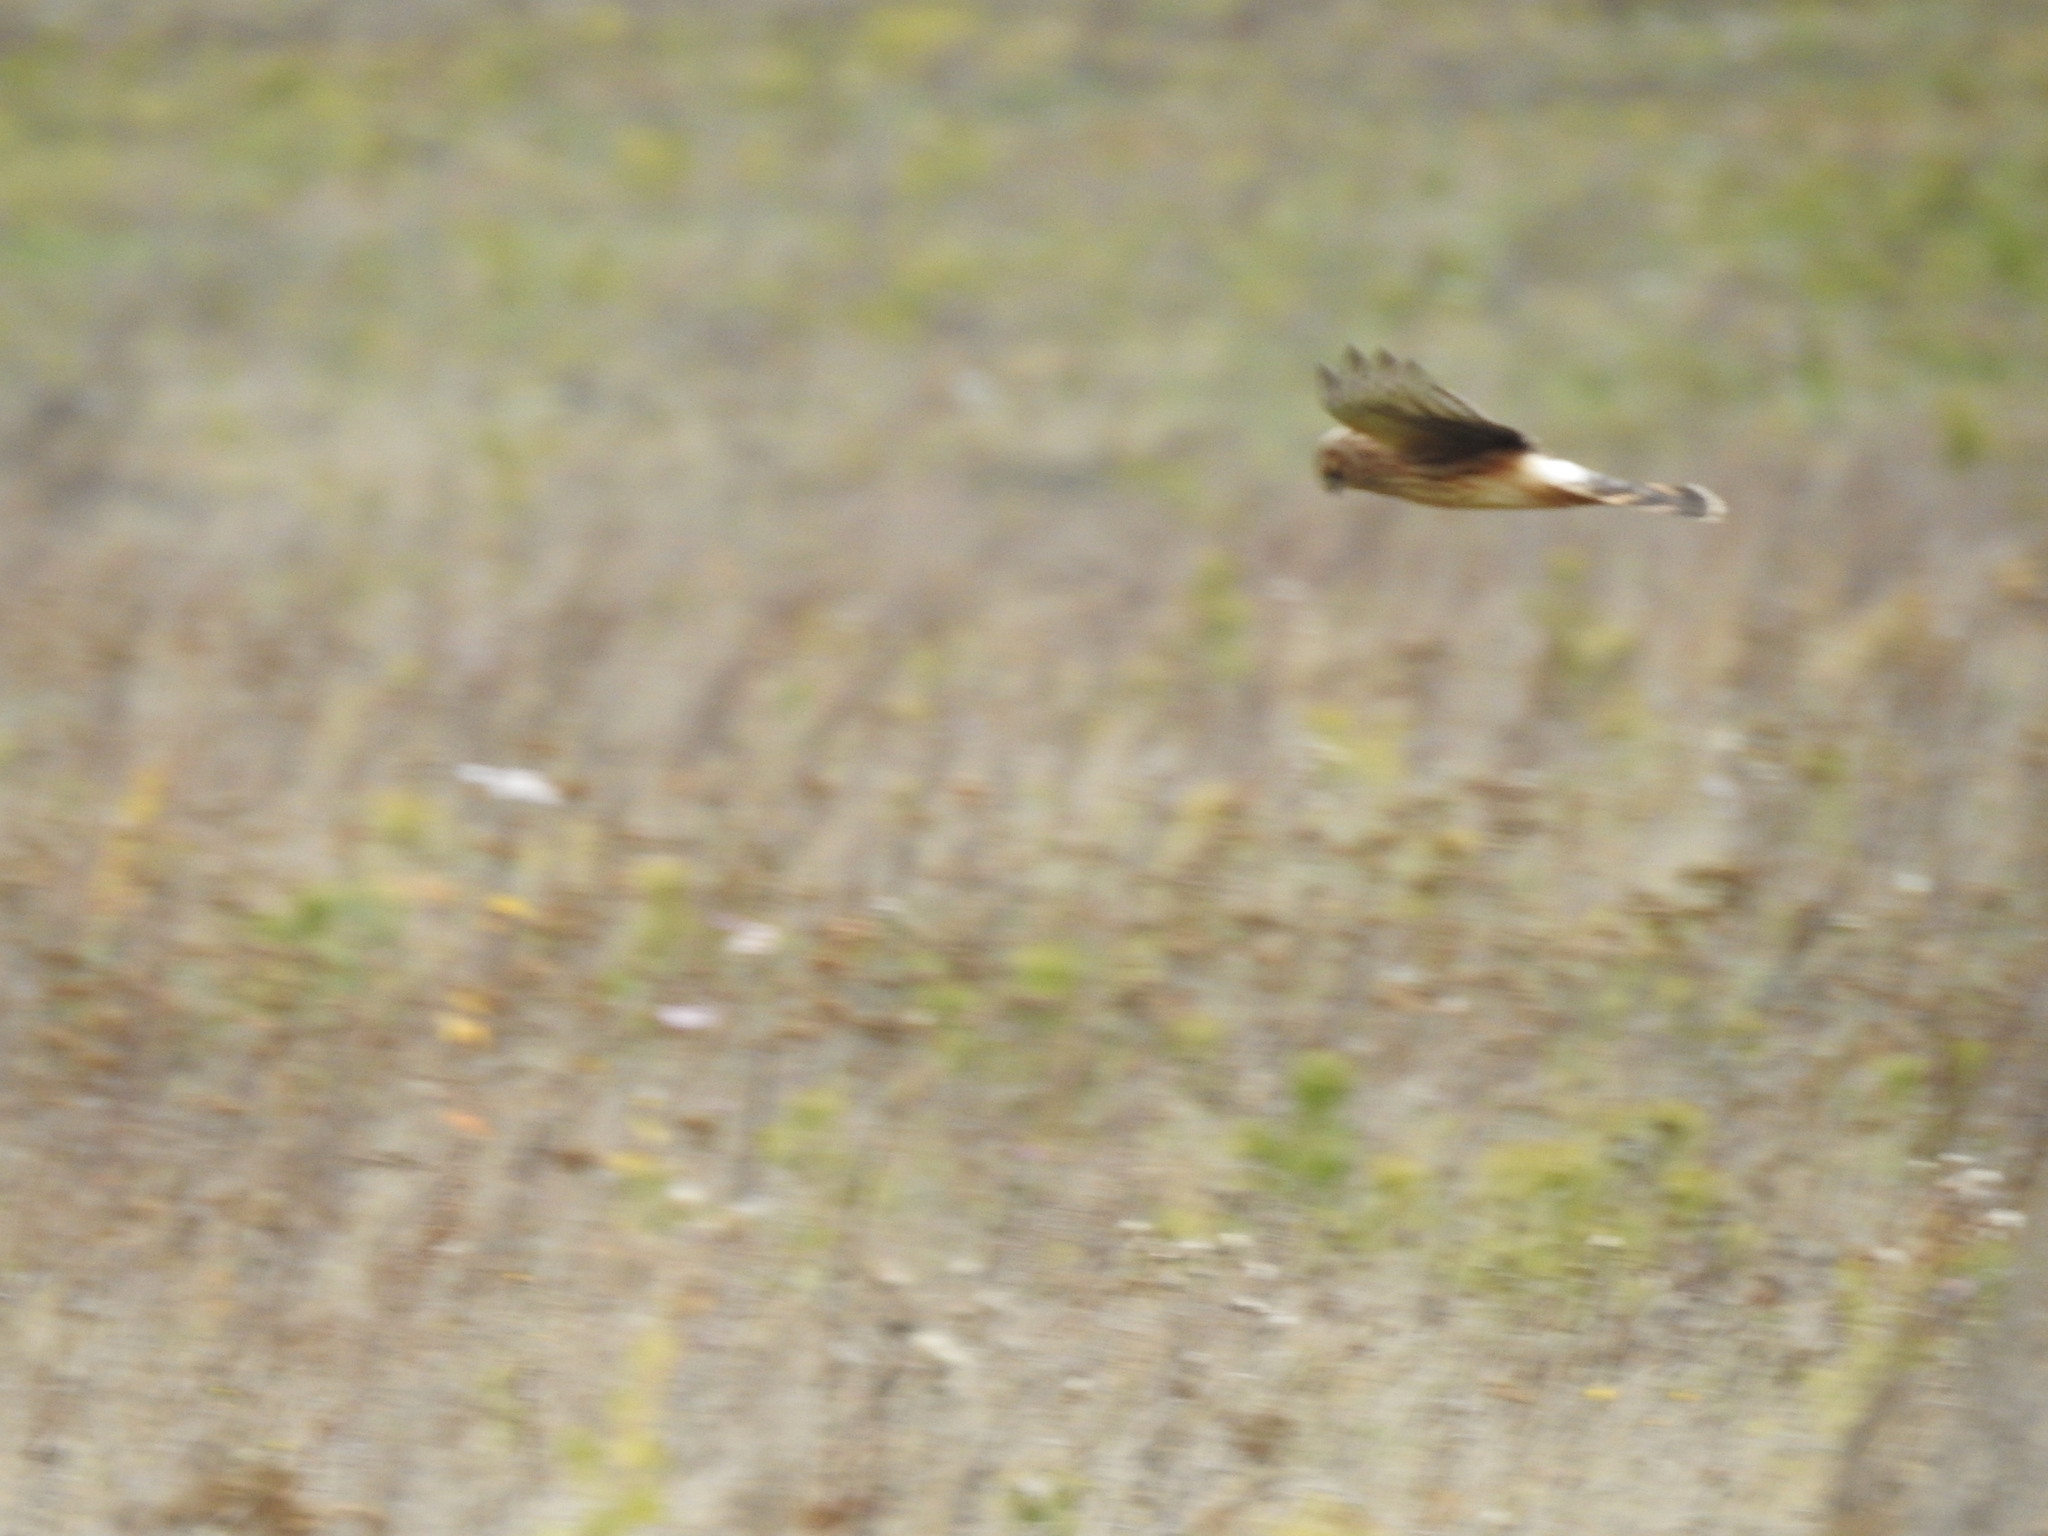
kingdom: Animalia
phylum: Chordata
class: Aves
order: Accipitriformes
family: Accipitridae
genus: Circus
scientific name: Circus cyaneus
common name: Hen harrier
